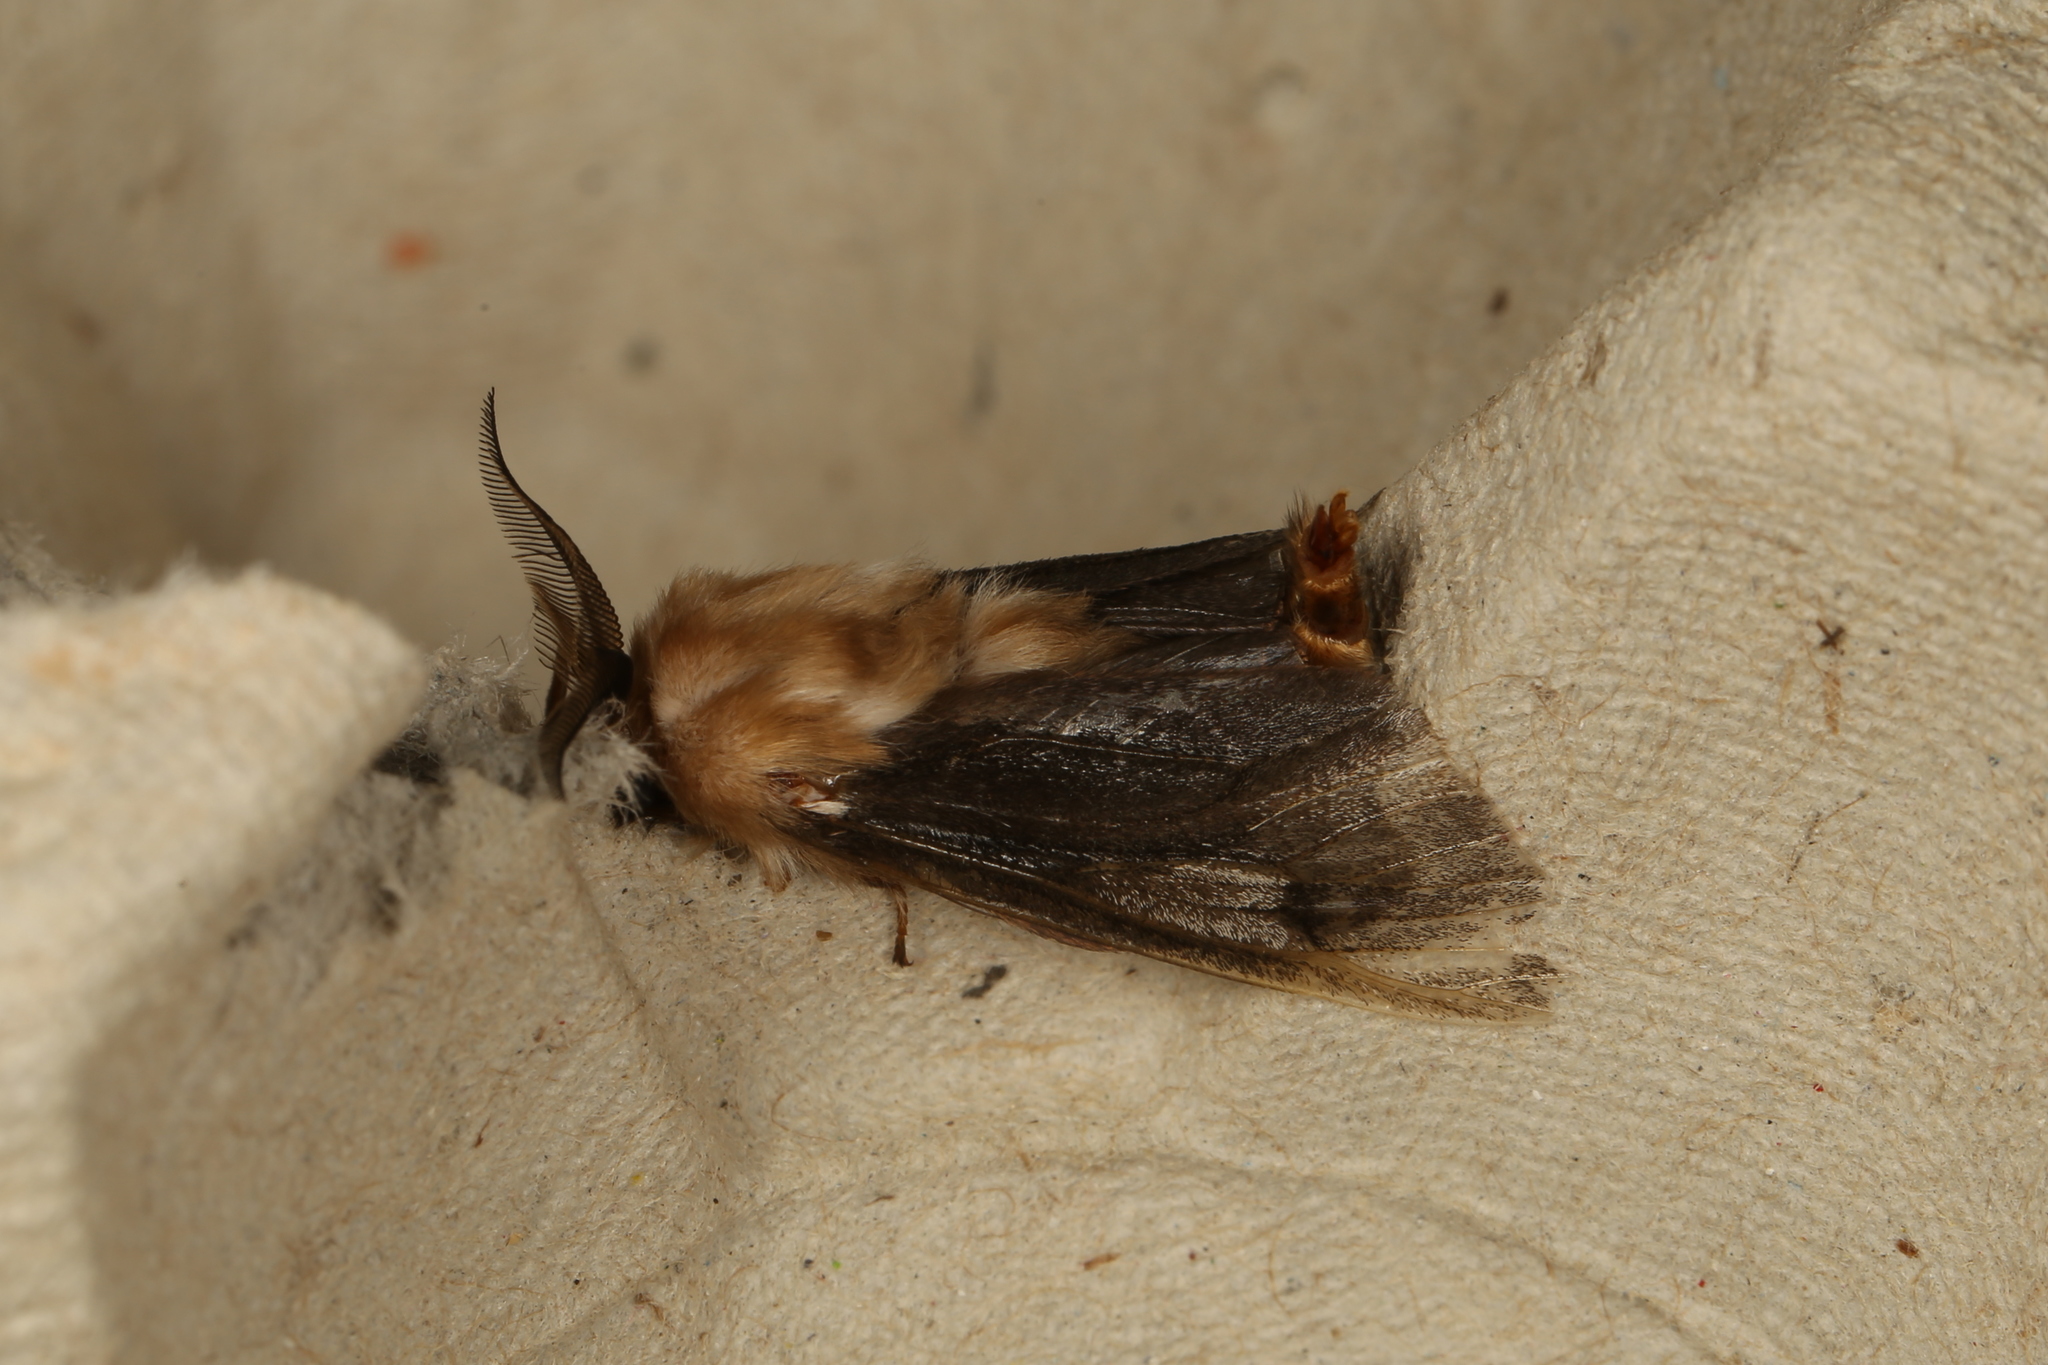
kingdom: Animalia
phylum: Arthropoda
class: Insecta
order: Lepidoptera
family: Psychidae
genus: Clania
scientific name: Clania ignobilis
